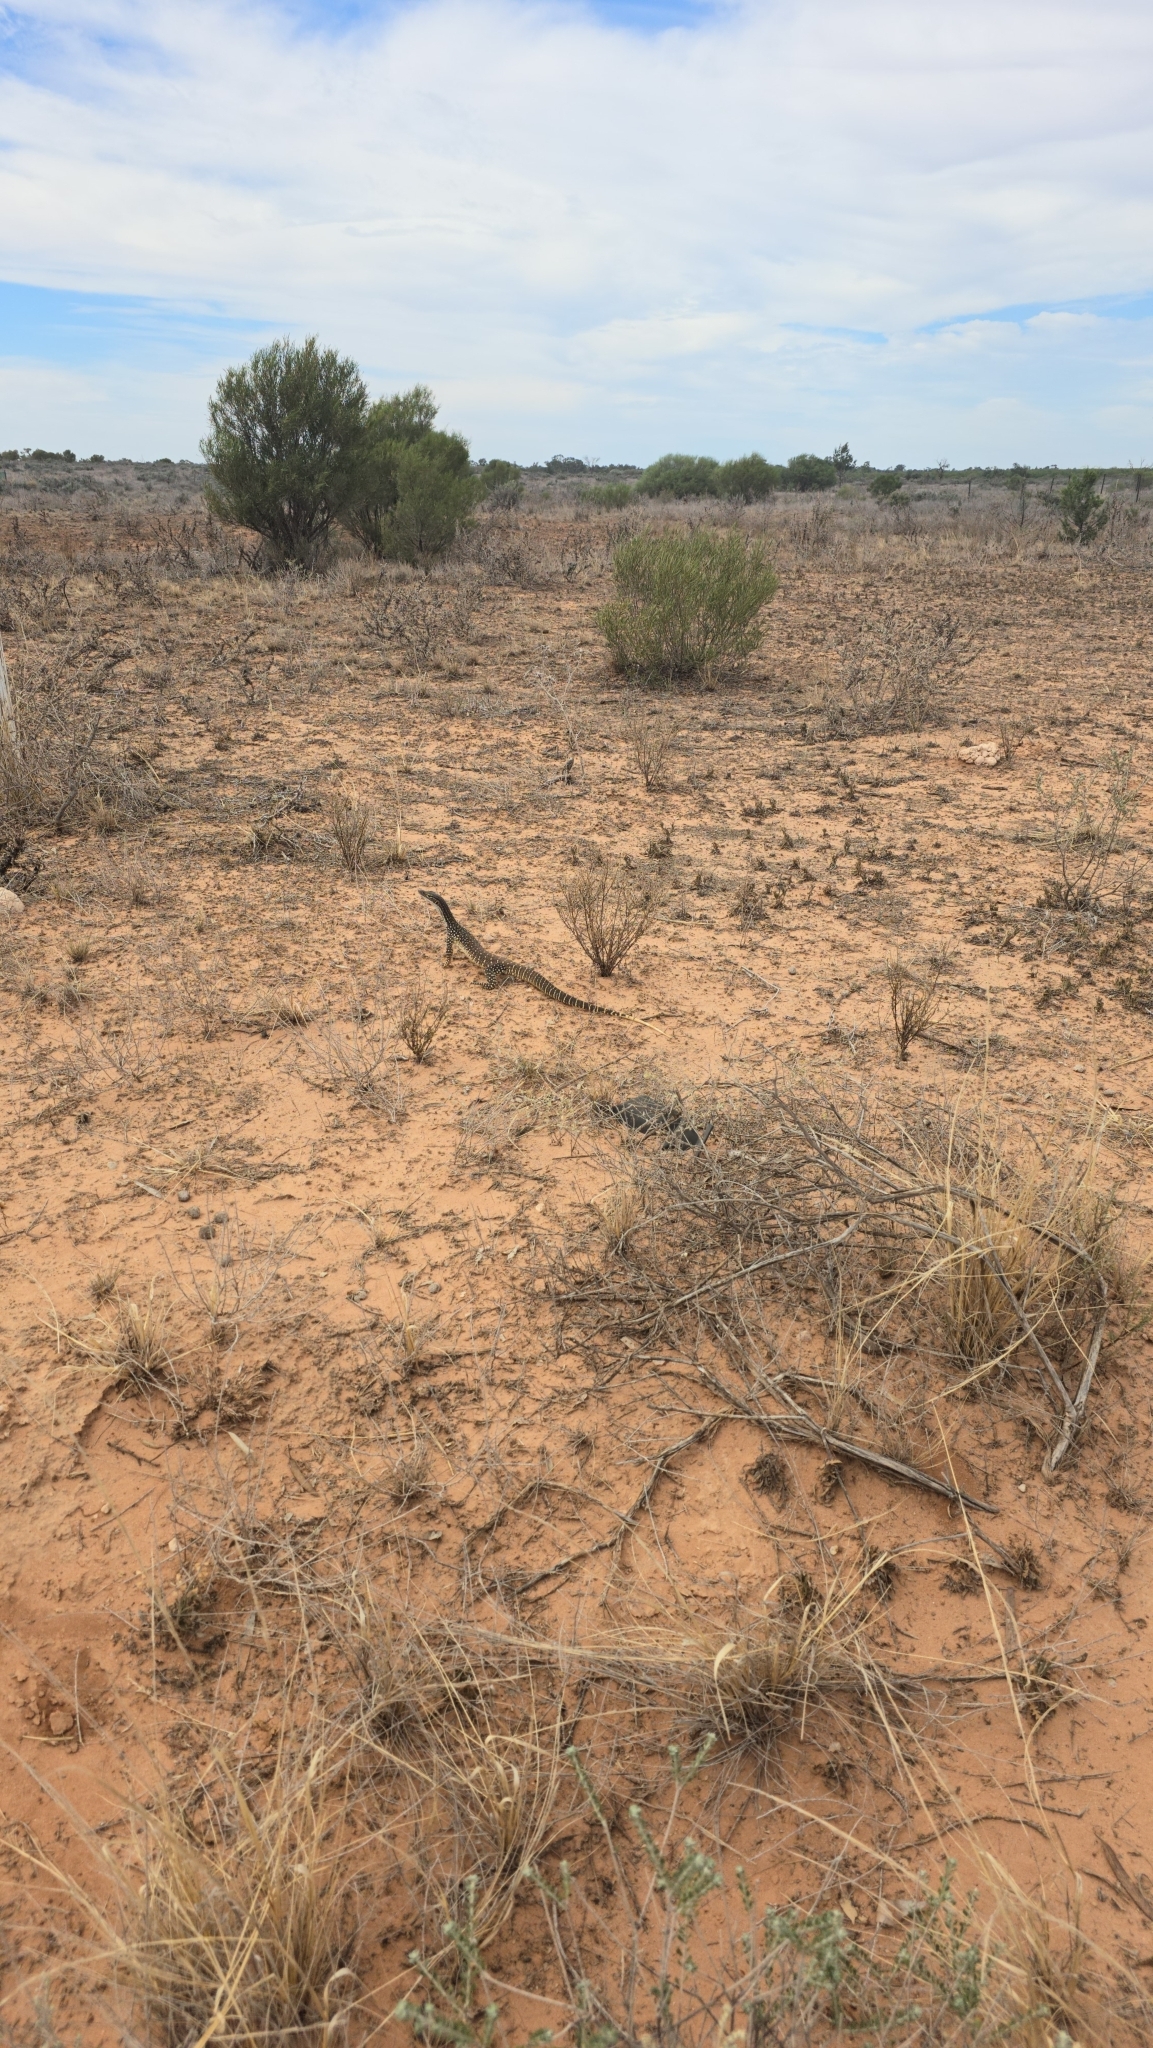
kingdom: Animalia
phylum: Chordata
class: Squamata
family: Varanidae
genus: Varanus
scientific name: Varanus gouldii
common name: Gould's goanna
